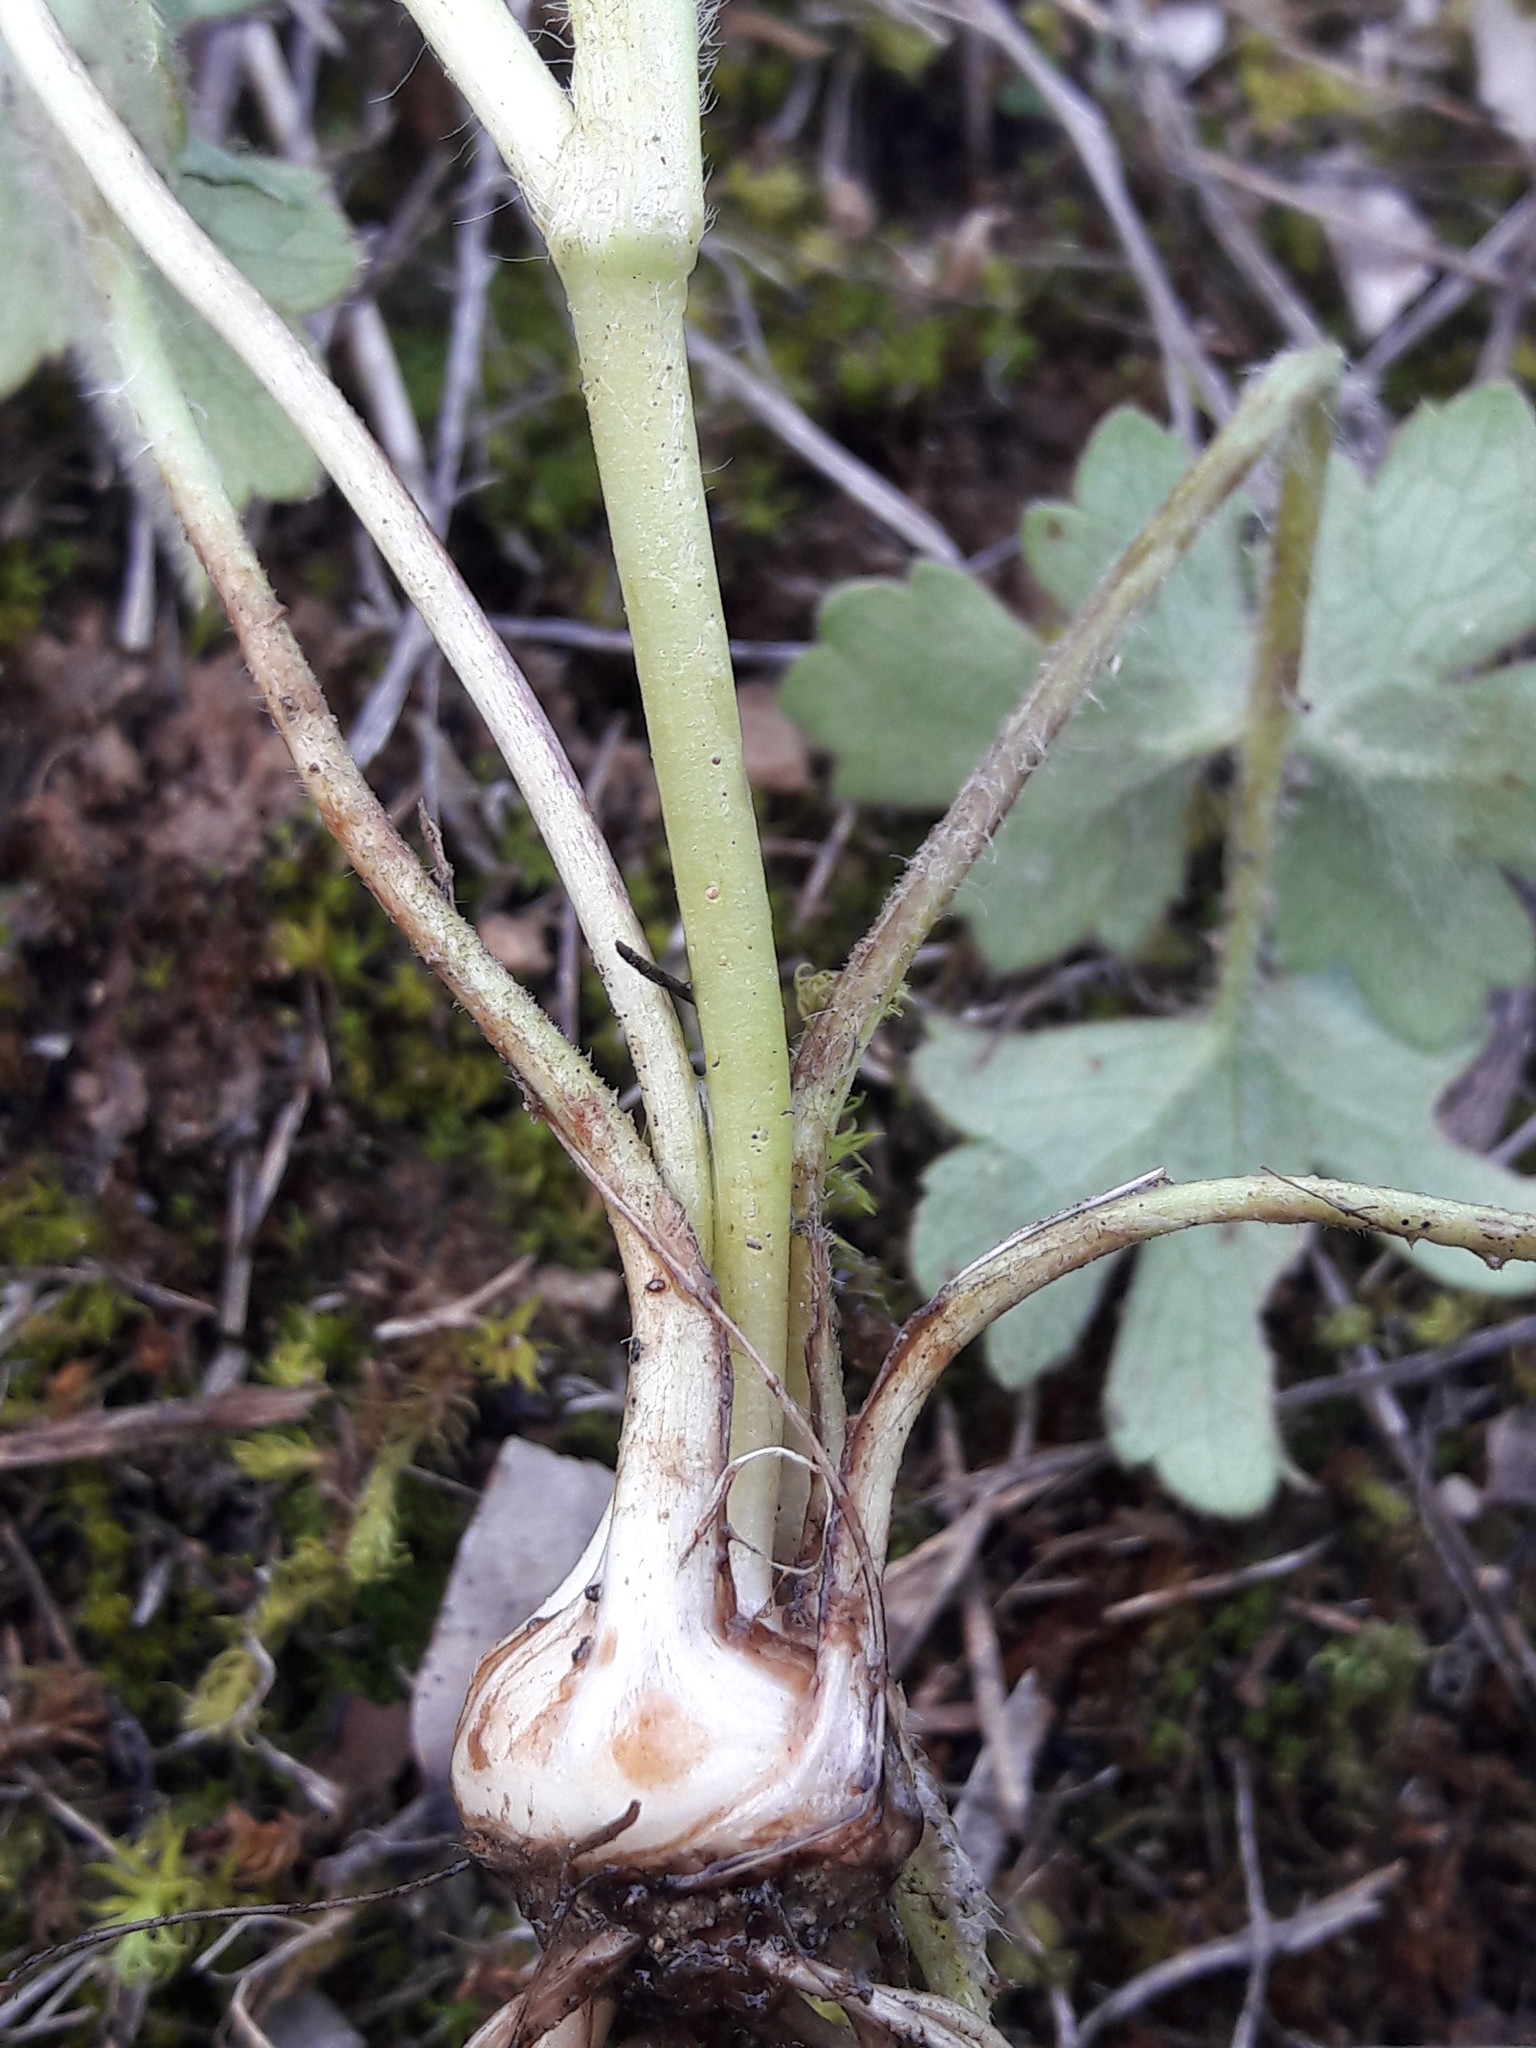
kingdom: Plantae
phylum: Tracheophyta
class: Magnoliopsida
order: Ranunculales
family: Ranunculaceae
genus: Ranunculus
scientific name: Ranunculus bulbosus
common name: Bulbous buttercup
